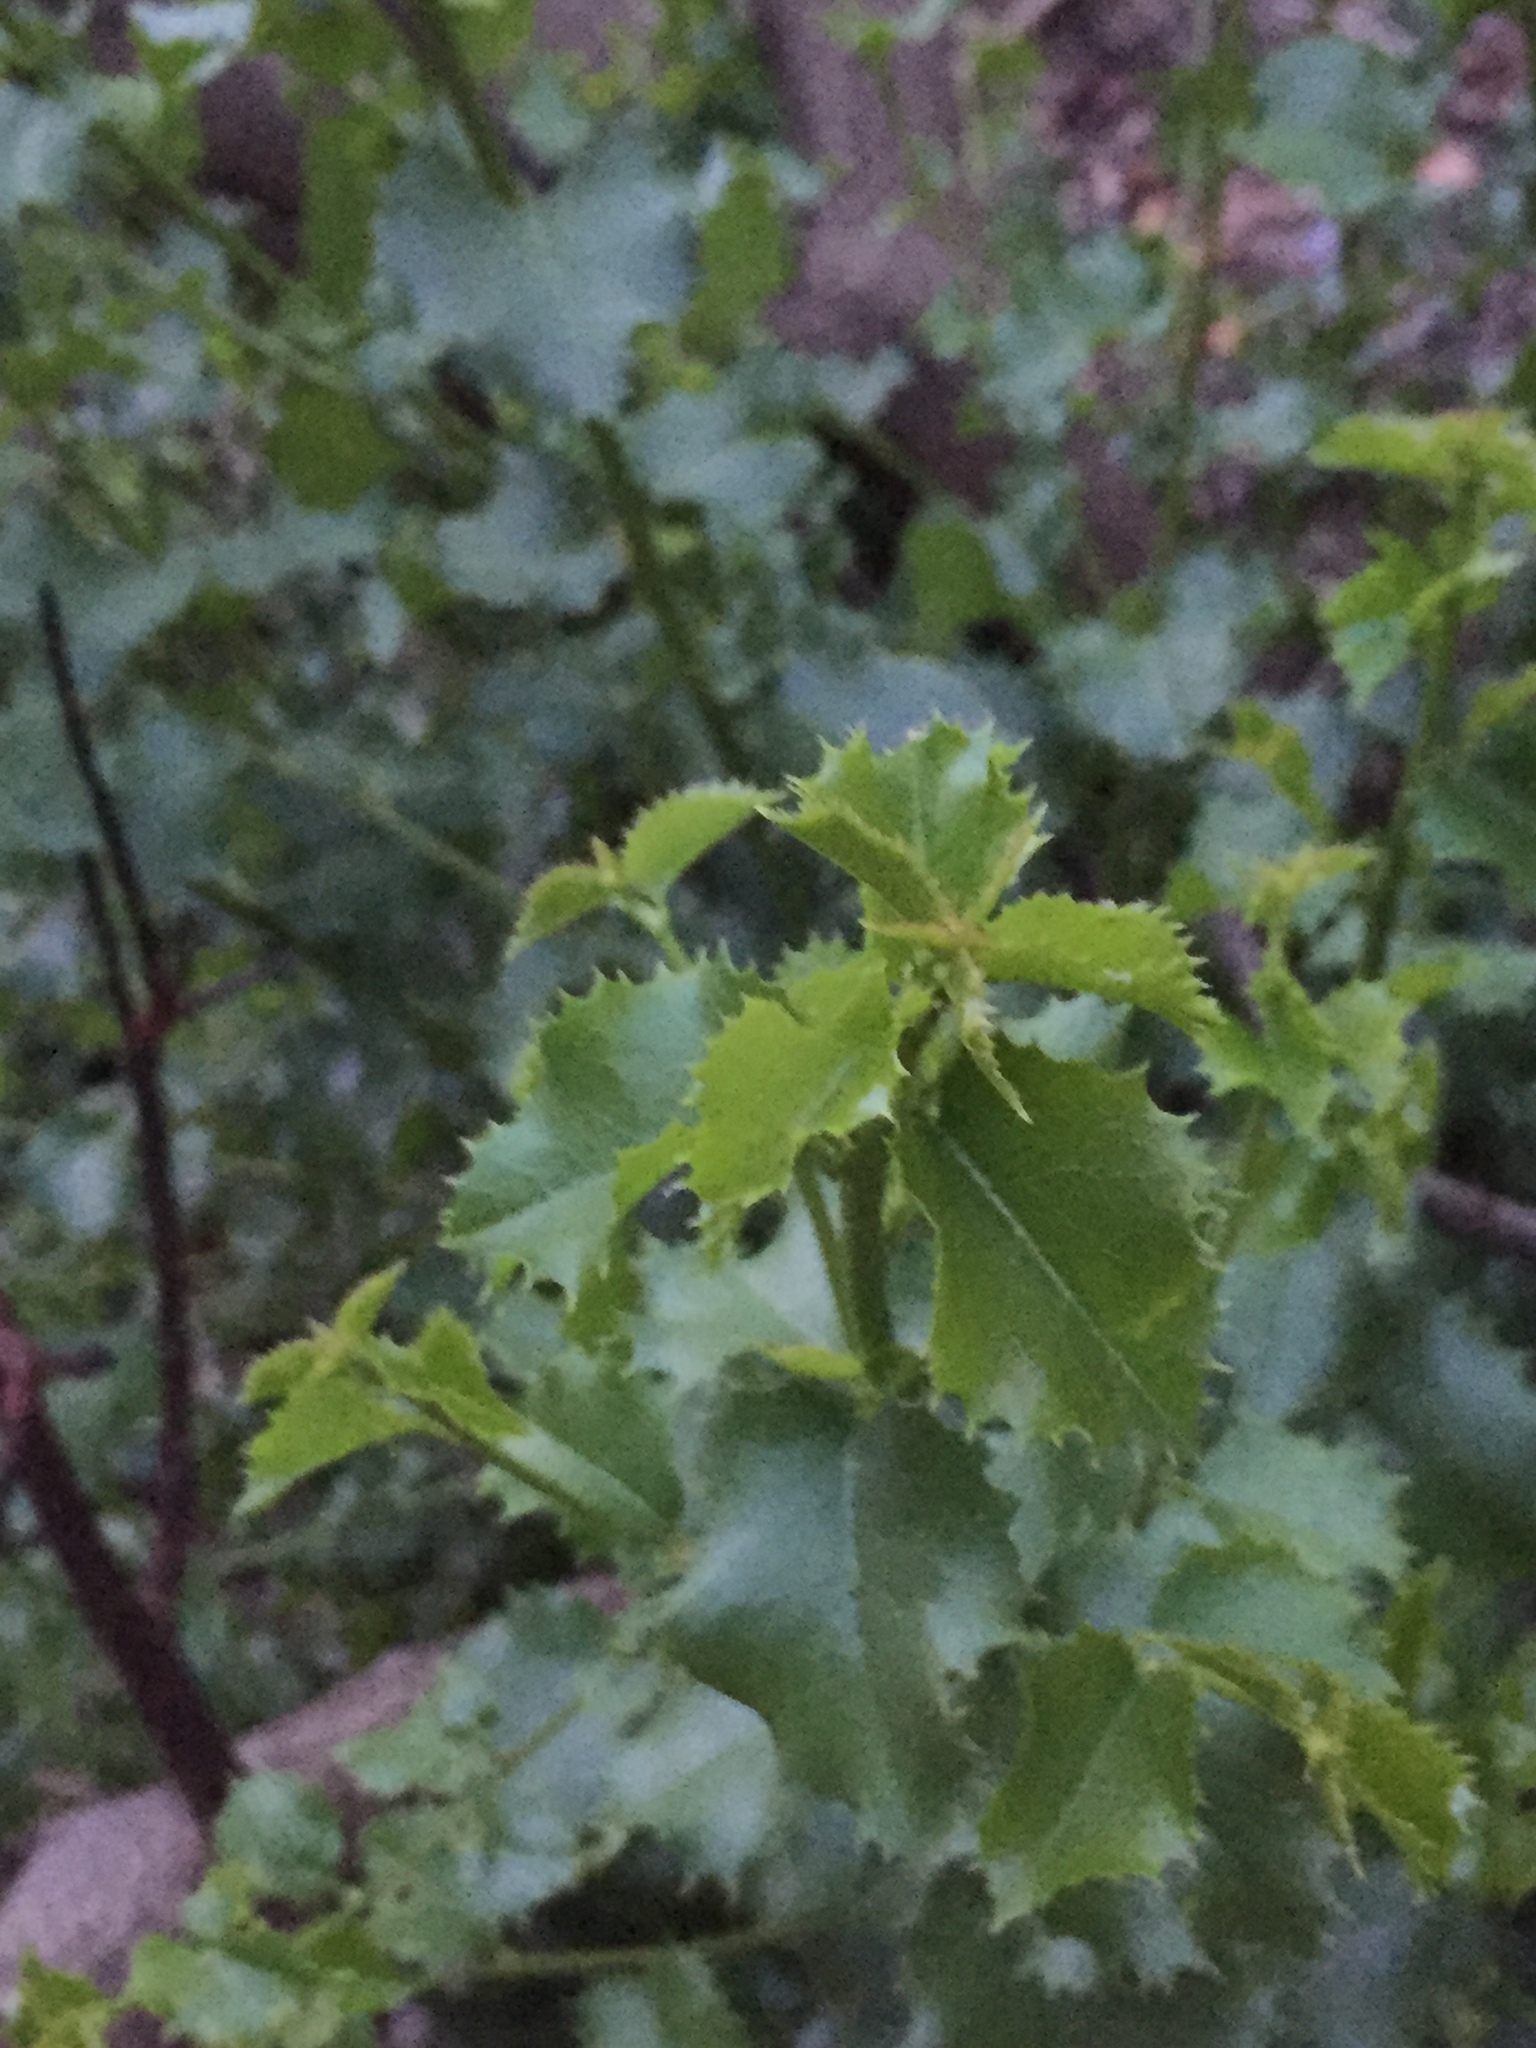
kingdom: Plantae
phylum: Tracheophyta
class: Magnoliopsida
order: Rosales
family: Rosaceae
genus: Prunus
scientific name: Prunus ilicifolia
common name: Hollyleaf cherry
